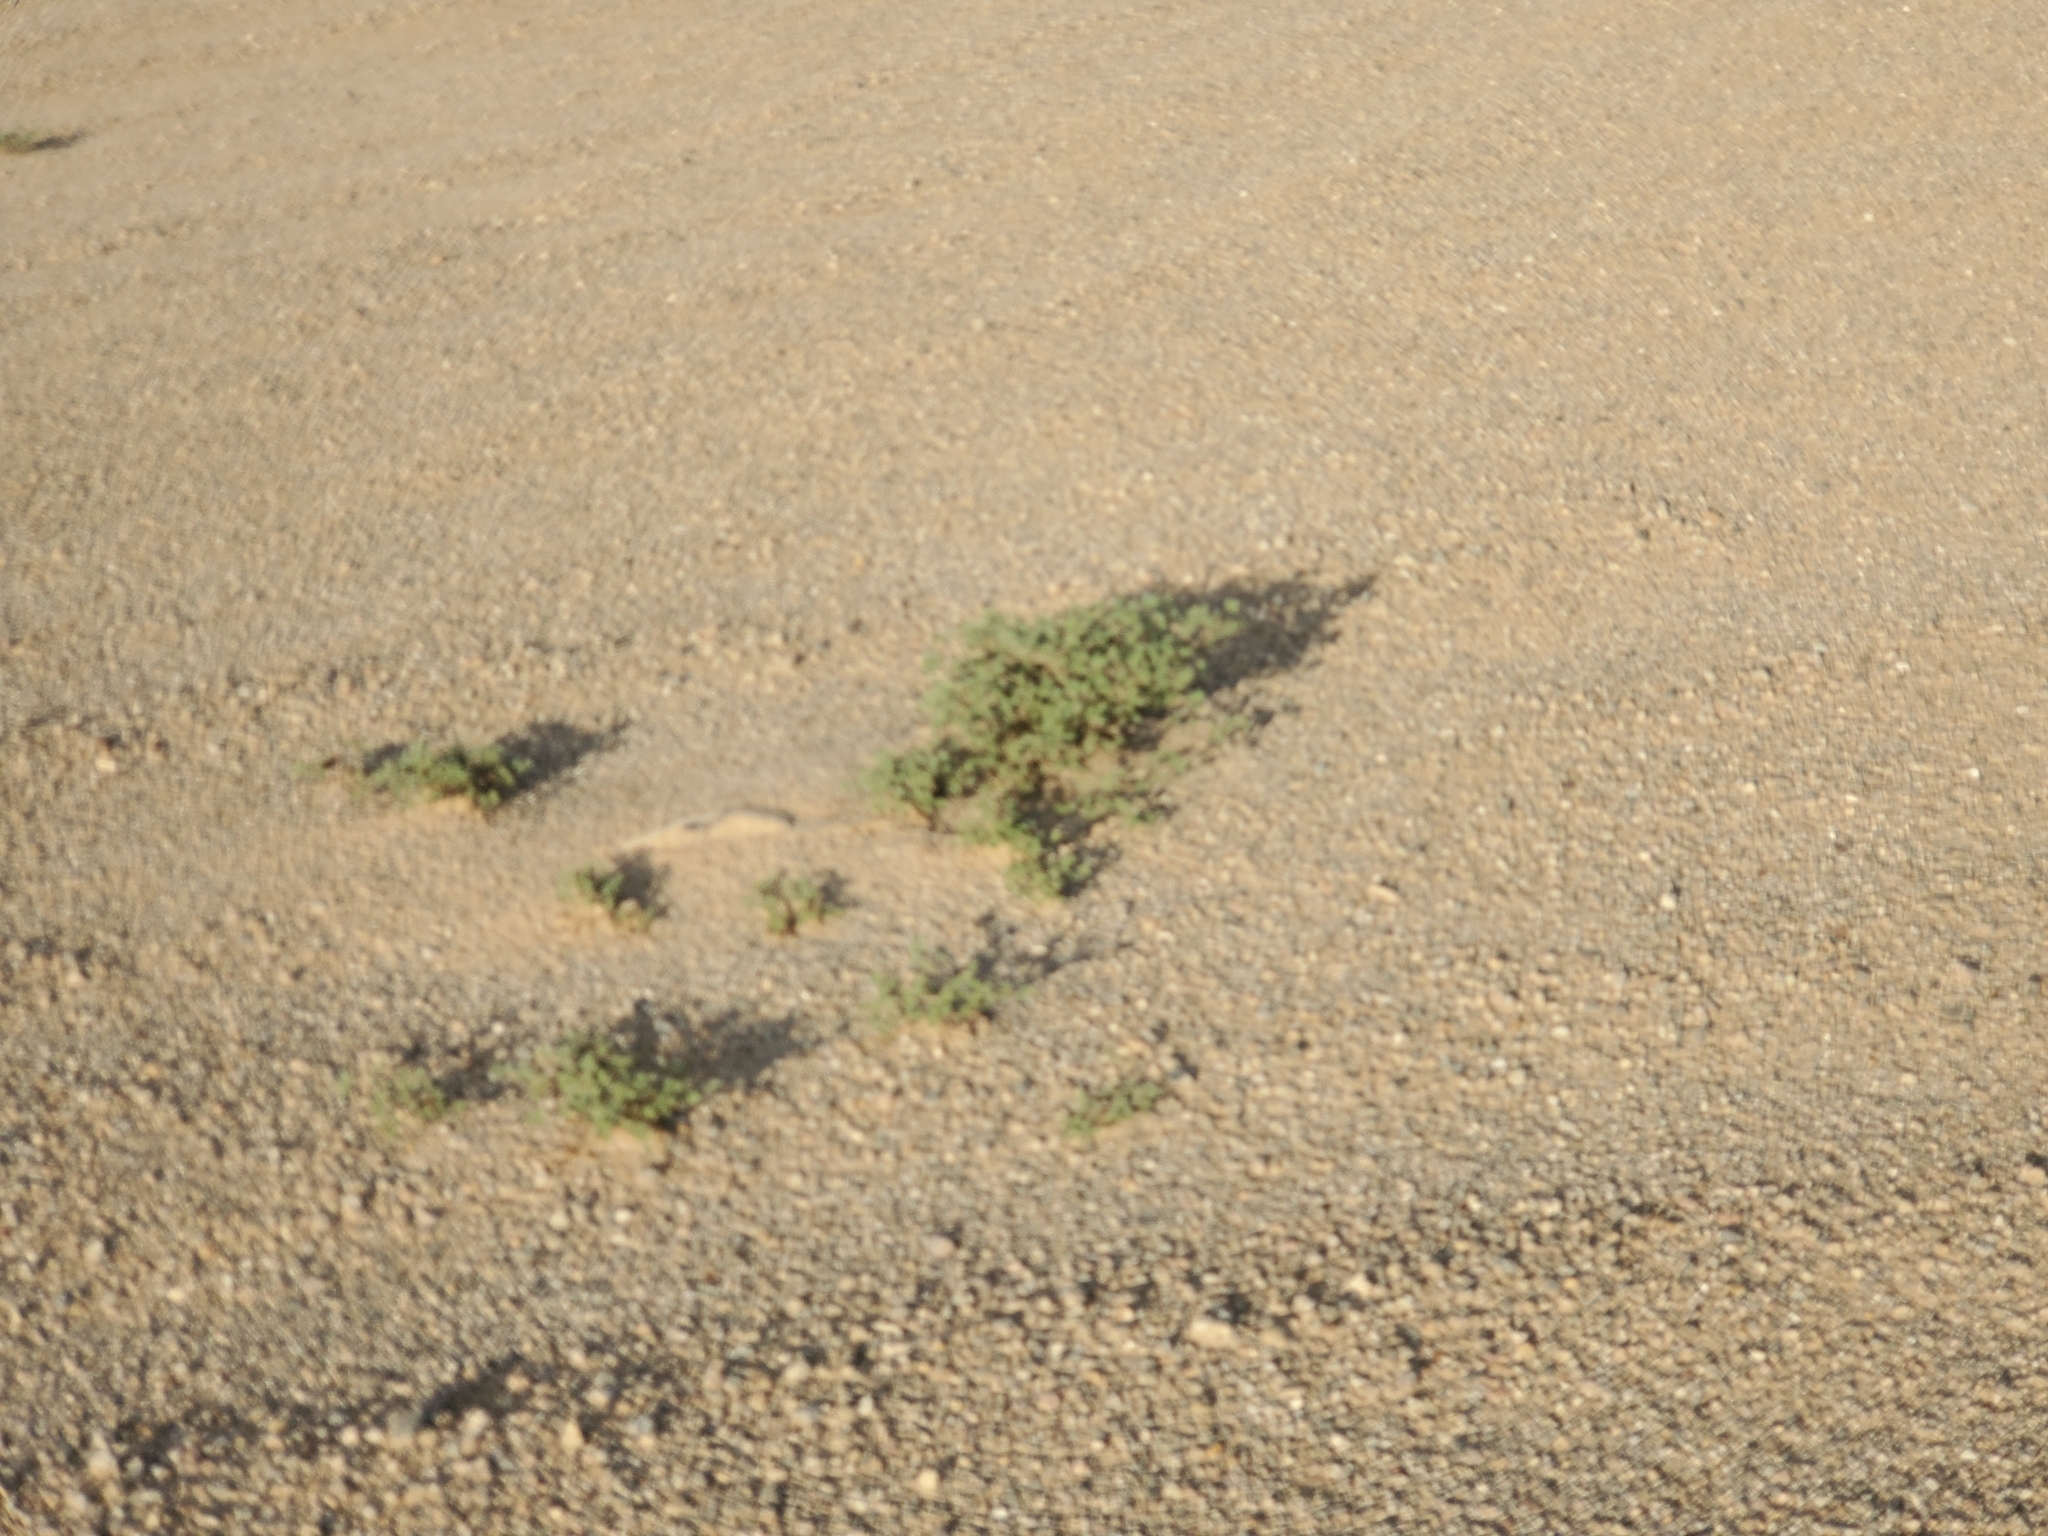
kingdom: Plantae
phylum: Tracheophyta
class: Magnoliopsida
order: Boraginales
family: Ehretiaceae
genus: Tiquilia
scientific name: Tiquilia plicata
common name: Fan-leaf tiquilia
